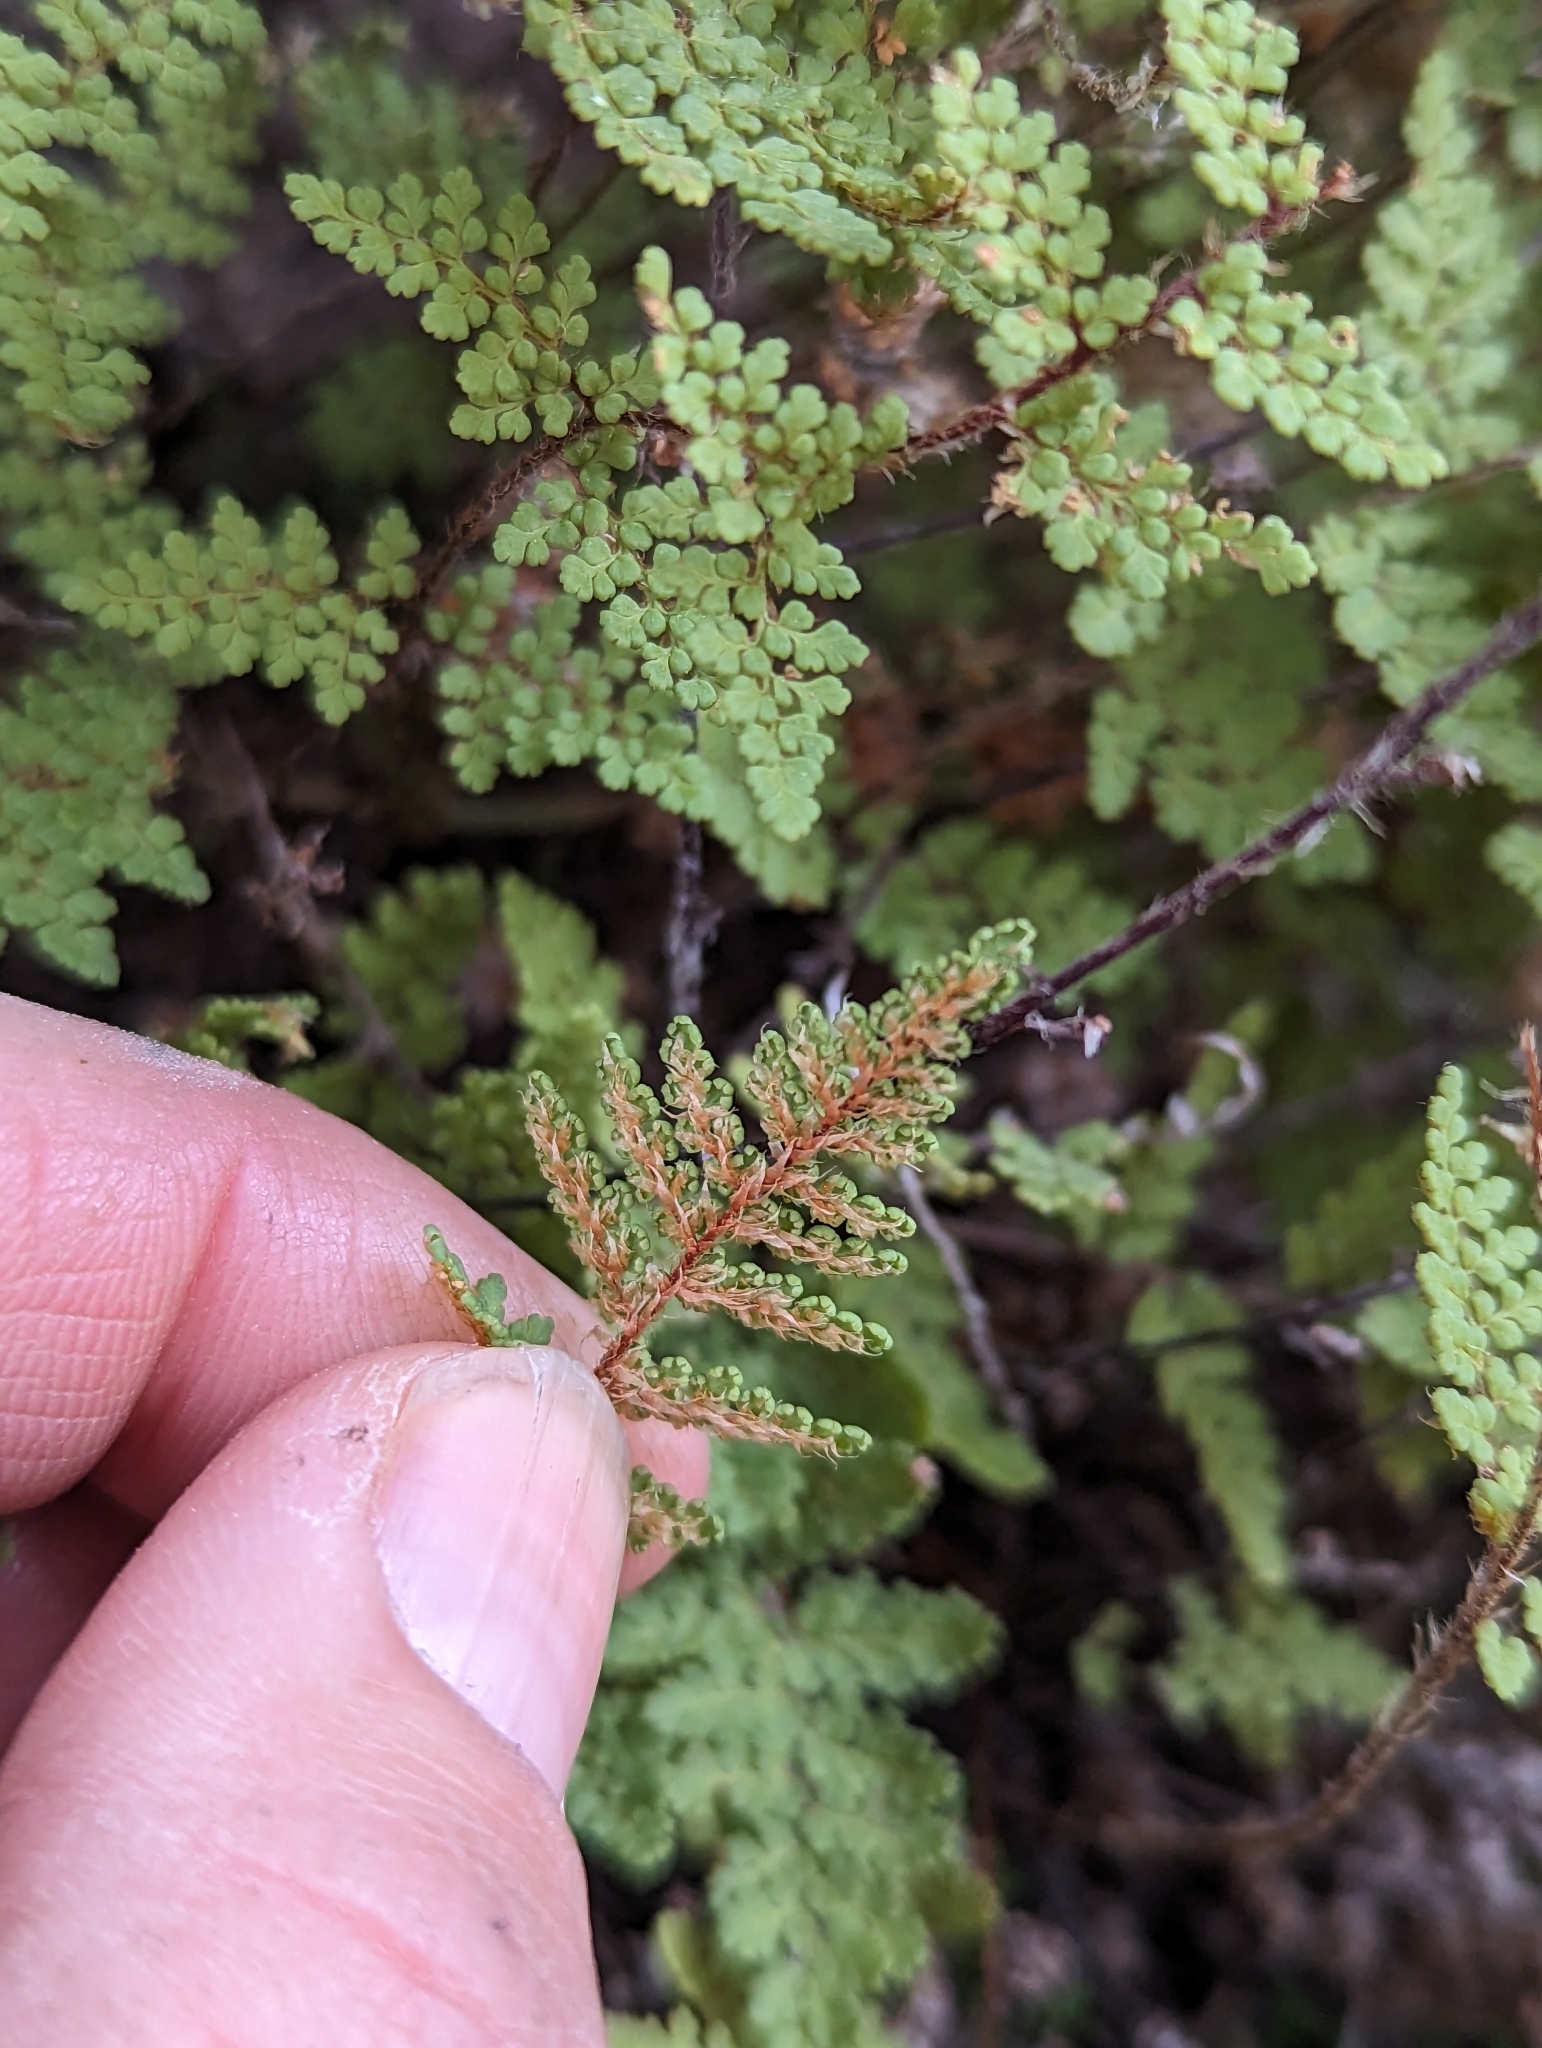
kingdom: Plantae
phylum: Tracheophyta
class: Polypodiopsida
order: Polypodiales
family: Pteridaceae
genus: Myriopteris
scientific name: Myriopteris fendleri
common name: Fendler's lip fern
